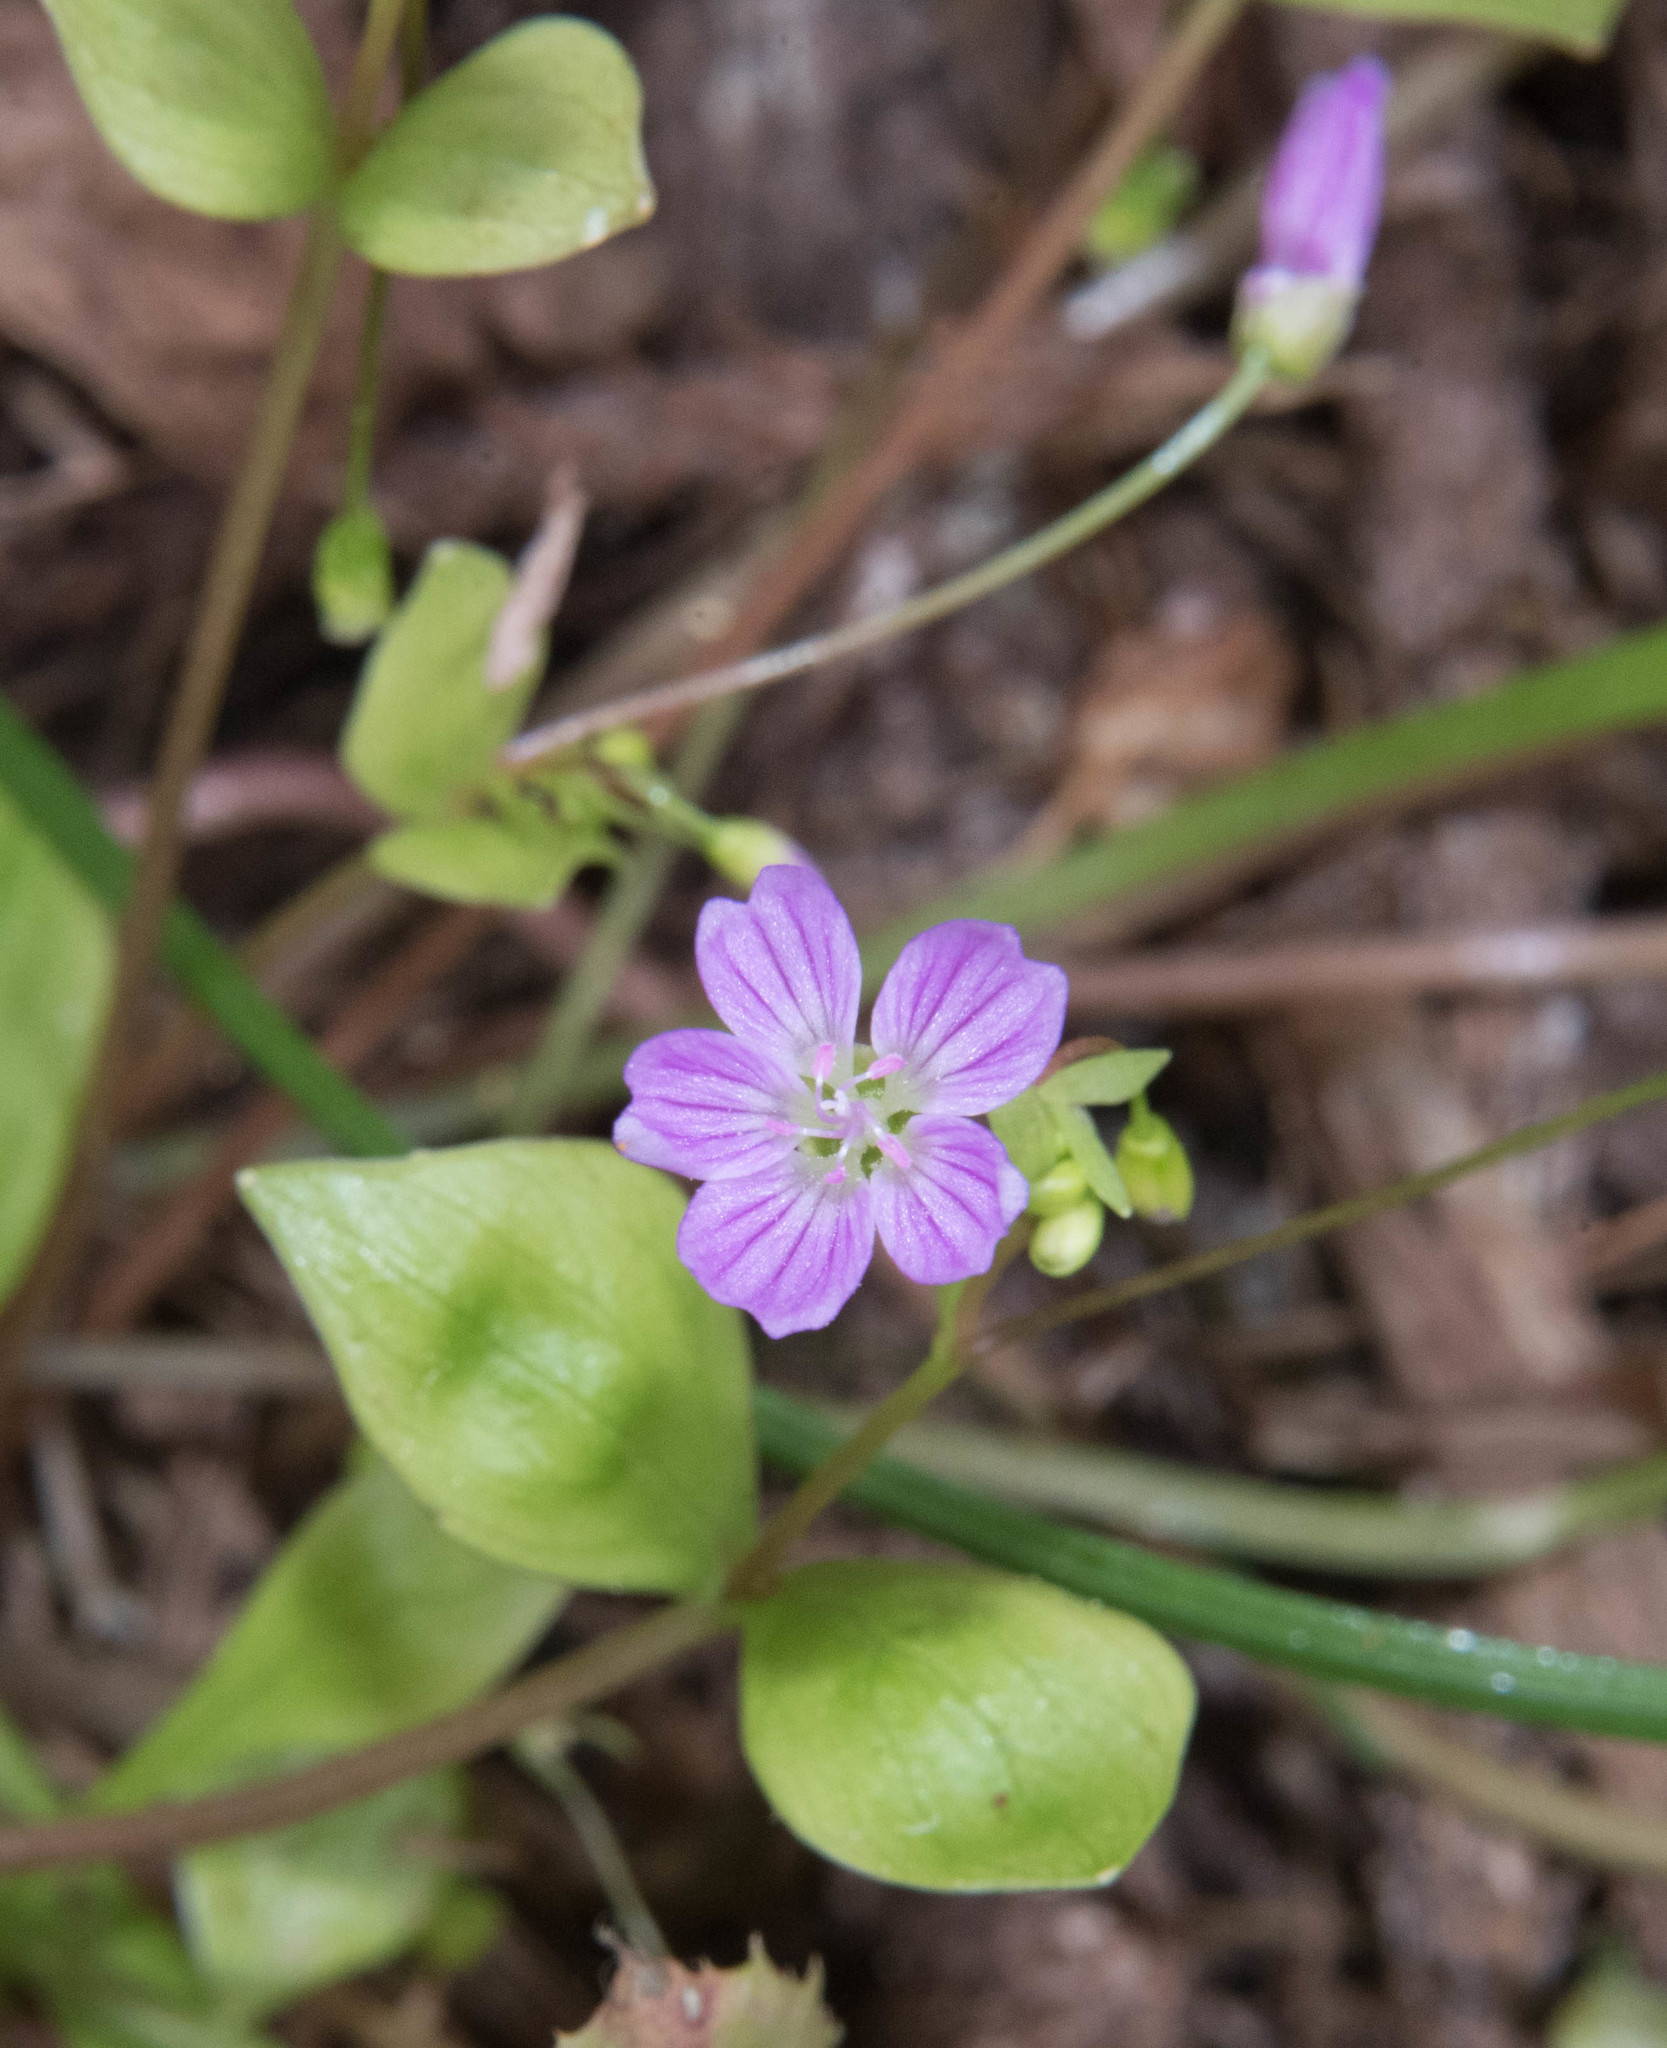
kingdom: Plantae
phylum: Tracheophyta
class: Magnoliopsida
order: Caryophyllales
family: Montiaceae
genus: Claytonia
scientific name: Claytonia sibirica
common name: Pink purslane
